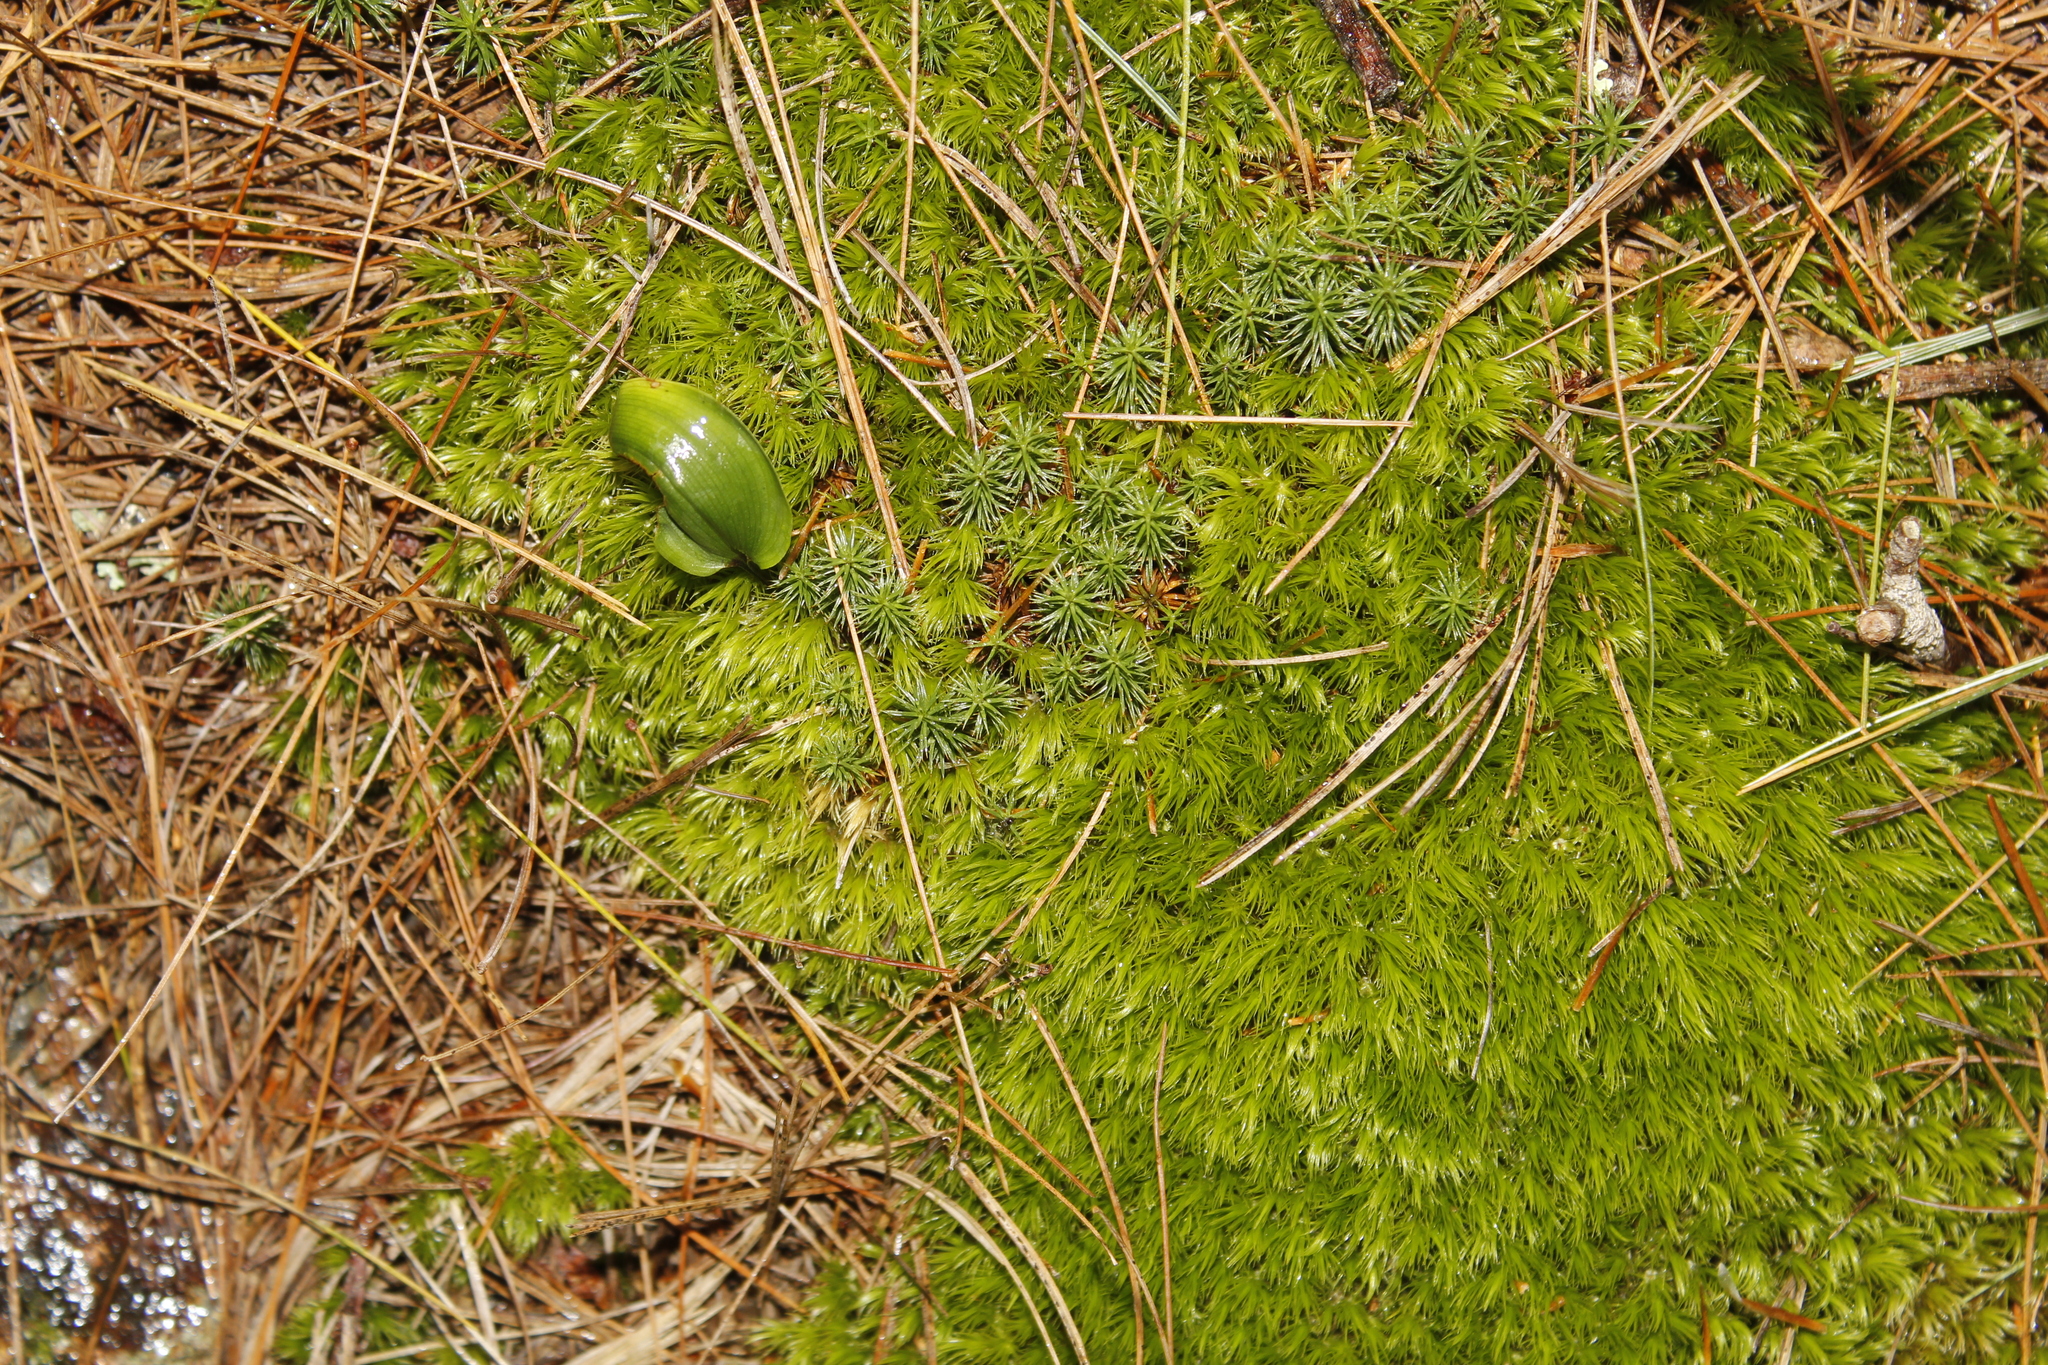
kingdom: Plantae
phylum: Tracheophyta
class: Liliopsida
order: Asparagales
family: Asparagaceae
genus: Maianthemum
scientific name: Maianthemum canadense
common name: False lily-of-the-valley
